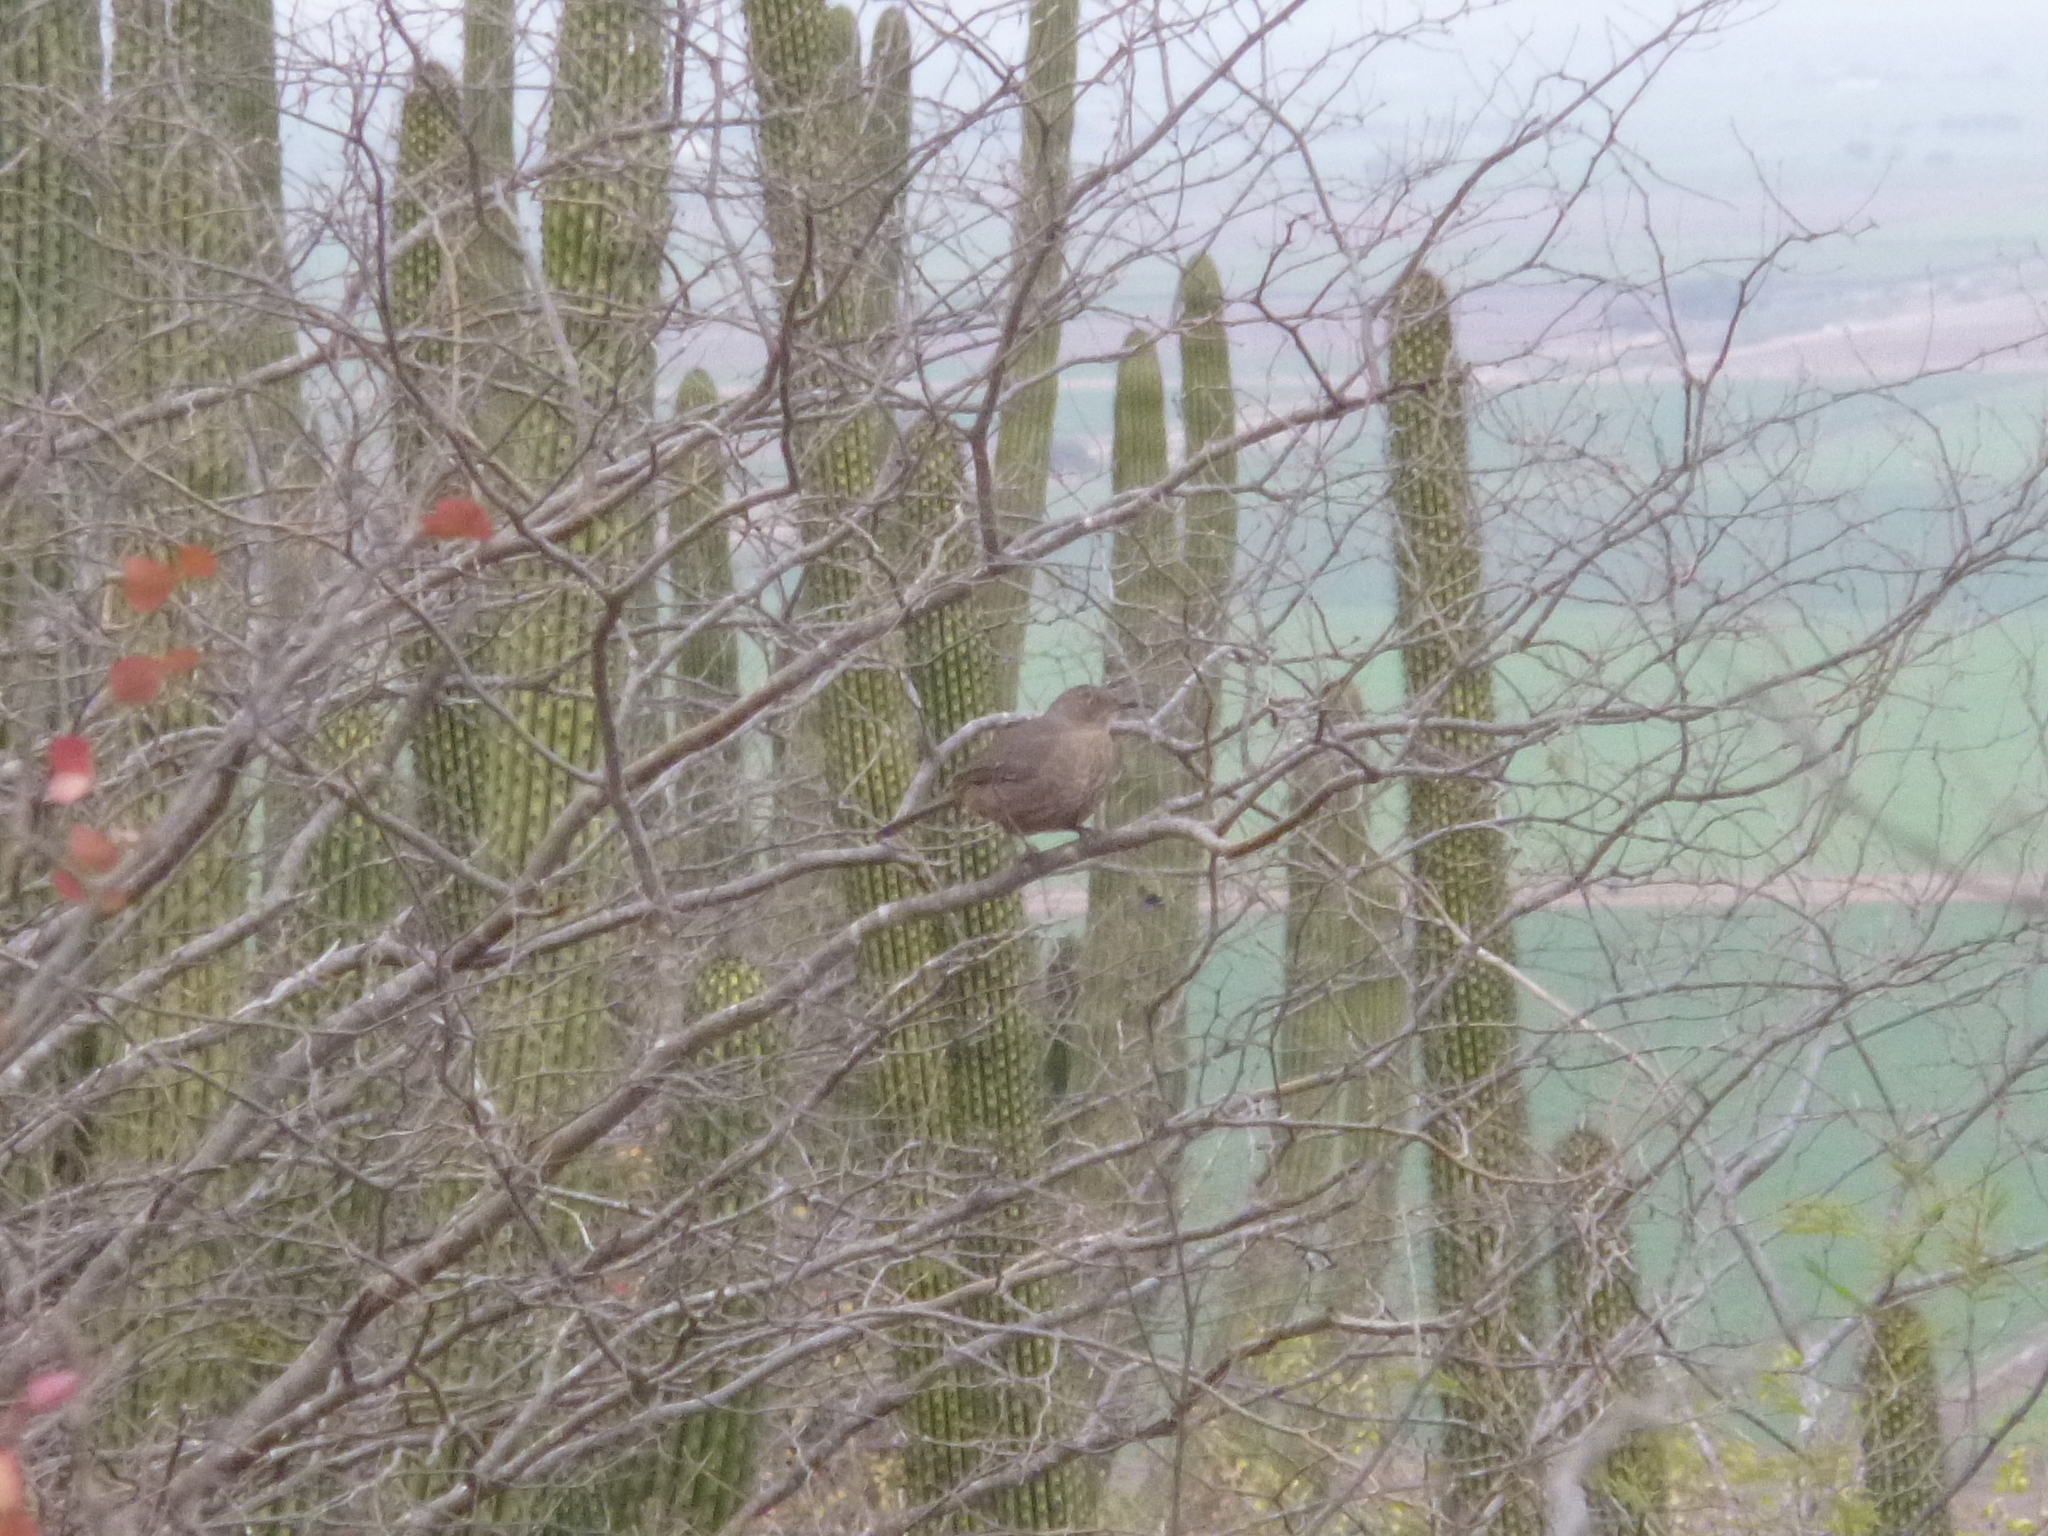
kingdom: Animalia
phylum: Chordata
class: Aves
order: Passeriformes
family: Mimidae
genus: Toxostoma
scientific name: Toxostoma curvirostre
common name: Curve-billed thrasher
